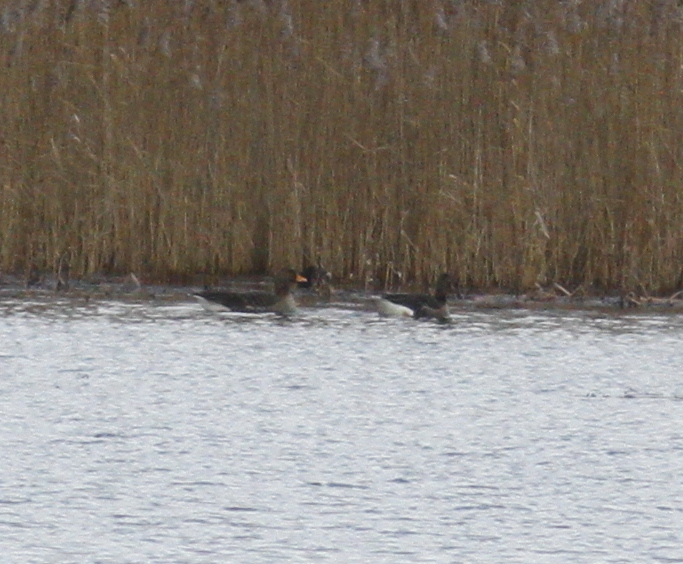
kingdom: Animalia
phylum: Chordata
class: Aves
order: Anseriformes
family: Anatidae
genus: Anser
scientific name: Anser anser
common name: Greylag goose
